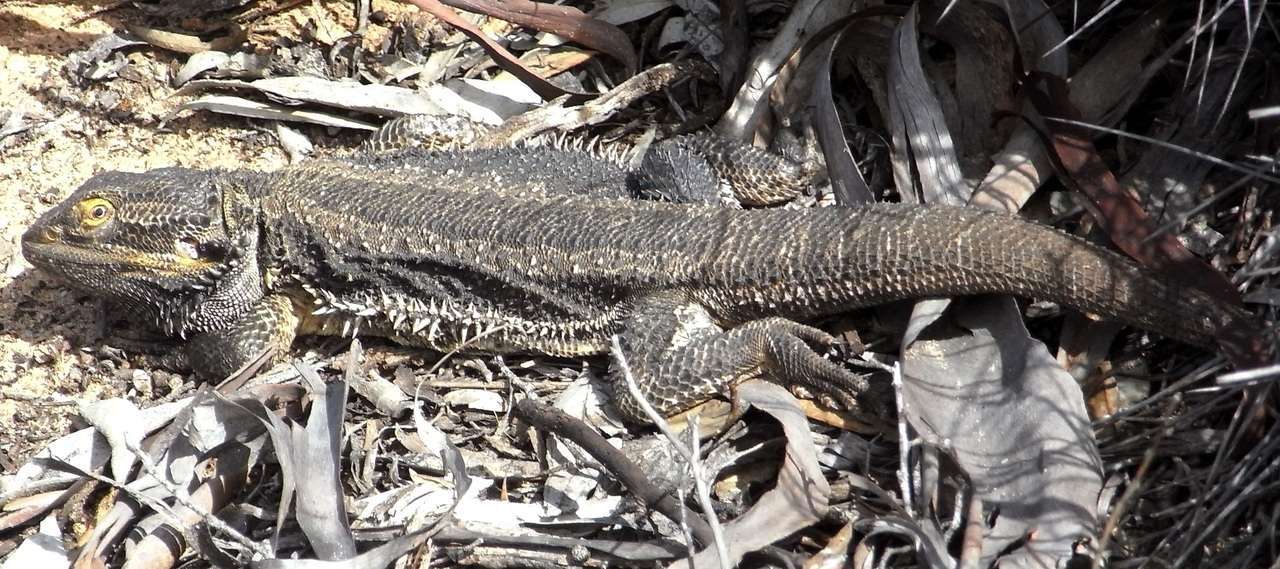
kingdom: Animalia
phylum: Chordata
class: Squamata
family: Agamidae
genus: Pogona
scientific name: Pogona vitticeps
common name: Central bearded dragon
